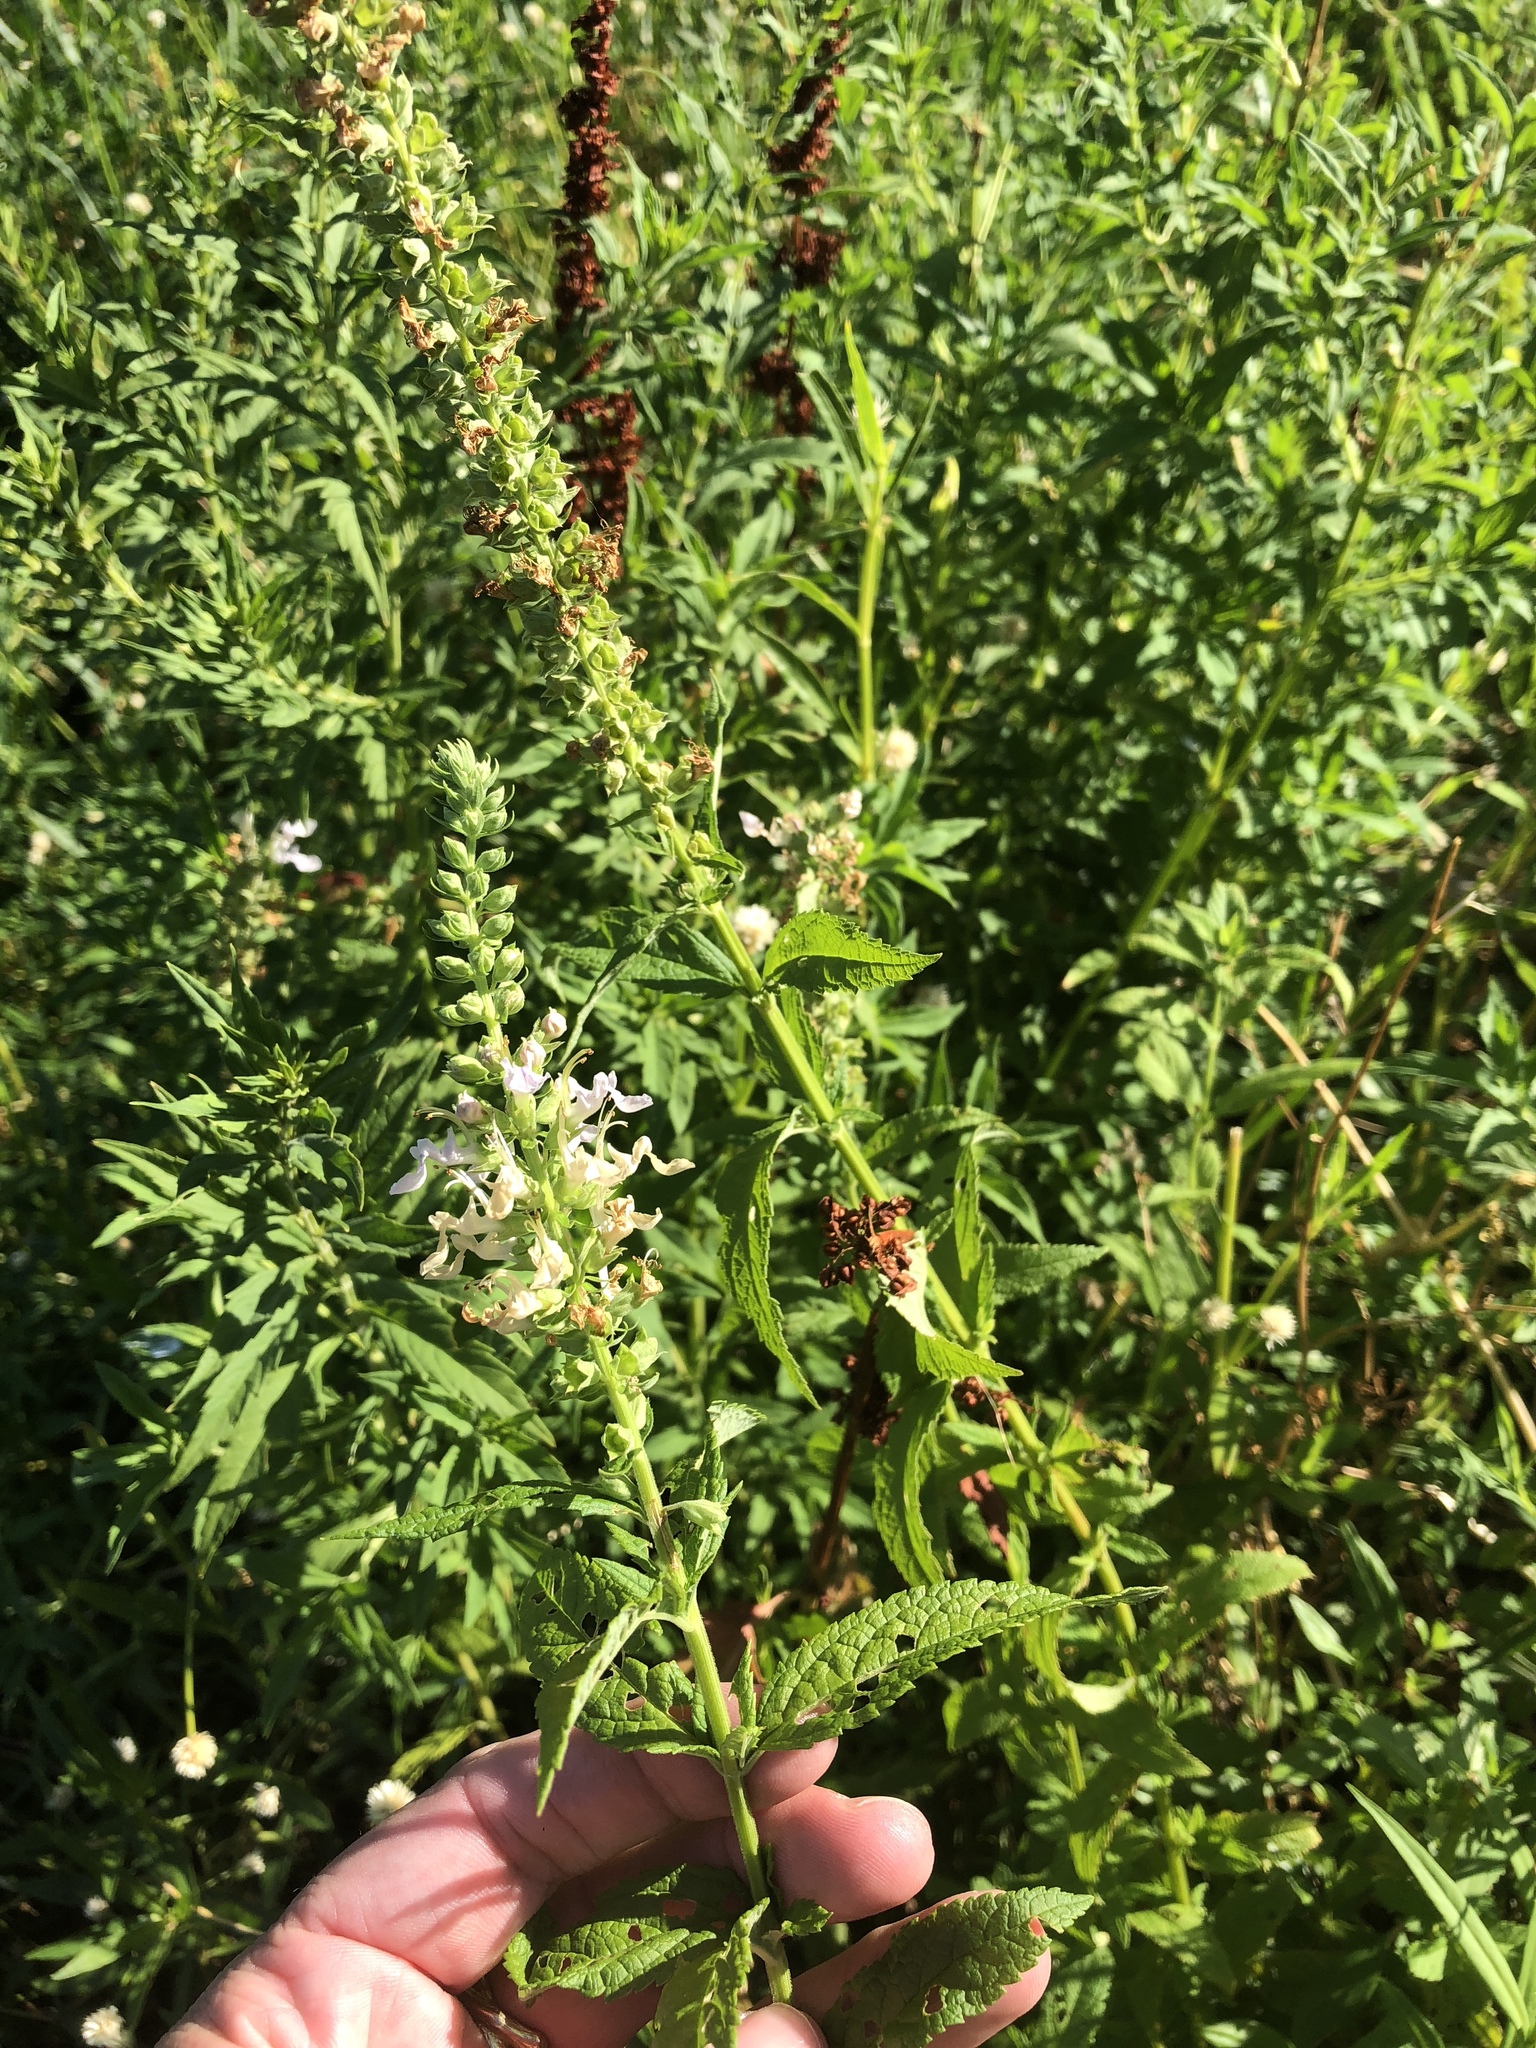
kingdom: Plantae
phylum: Tracheophyta
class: Magnoliopsida
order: Lamiales
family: Lamiaceae
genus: Teucrium
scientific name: Teucrium canadense
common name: American germander
